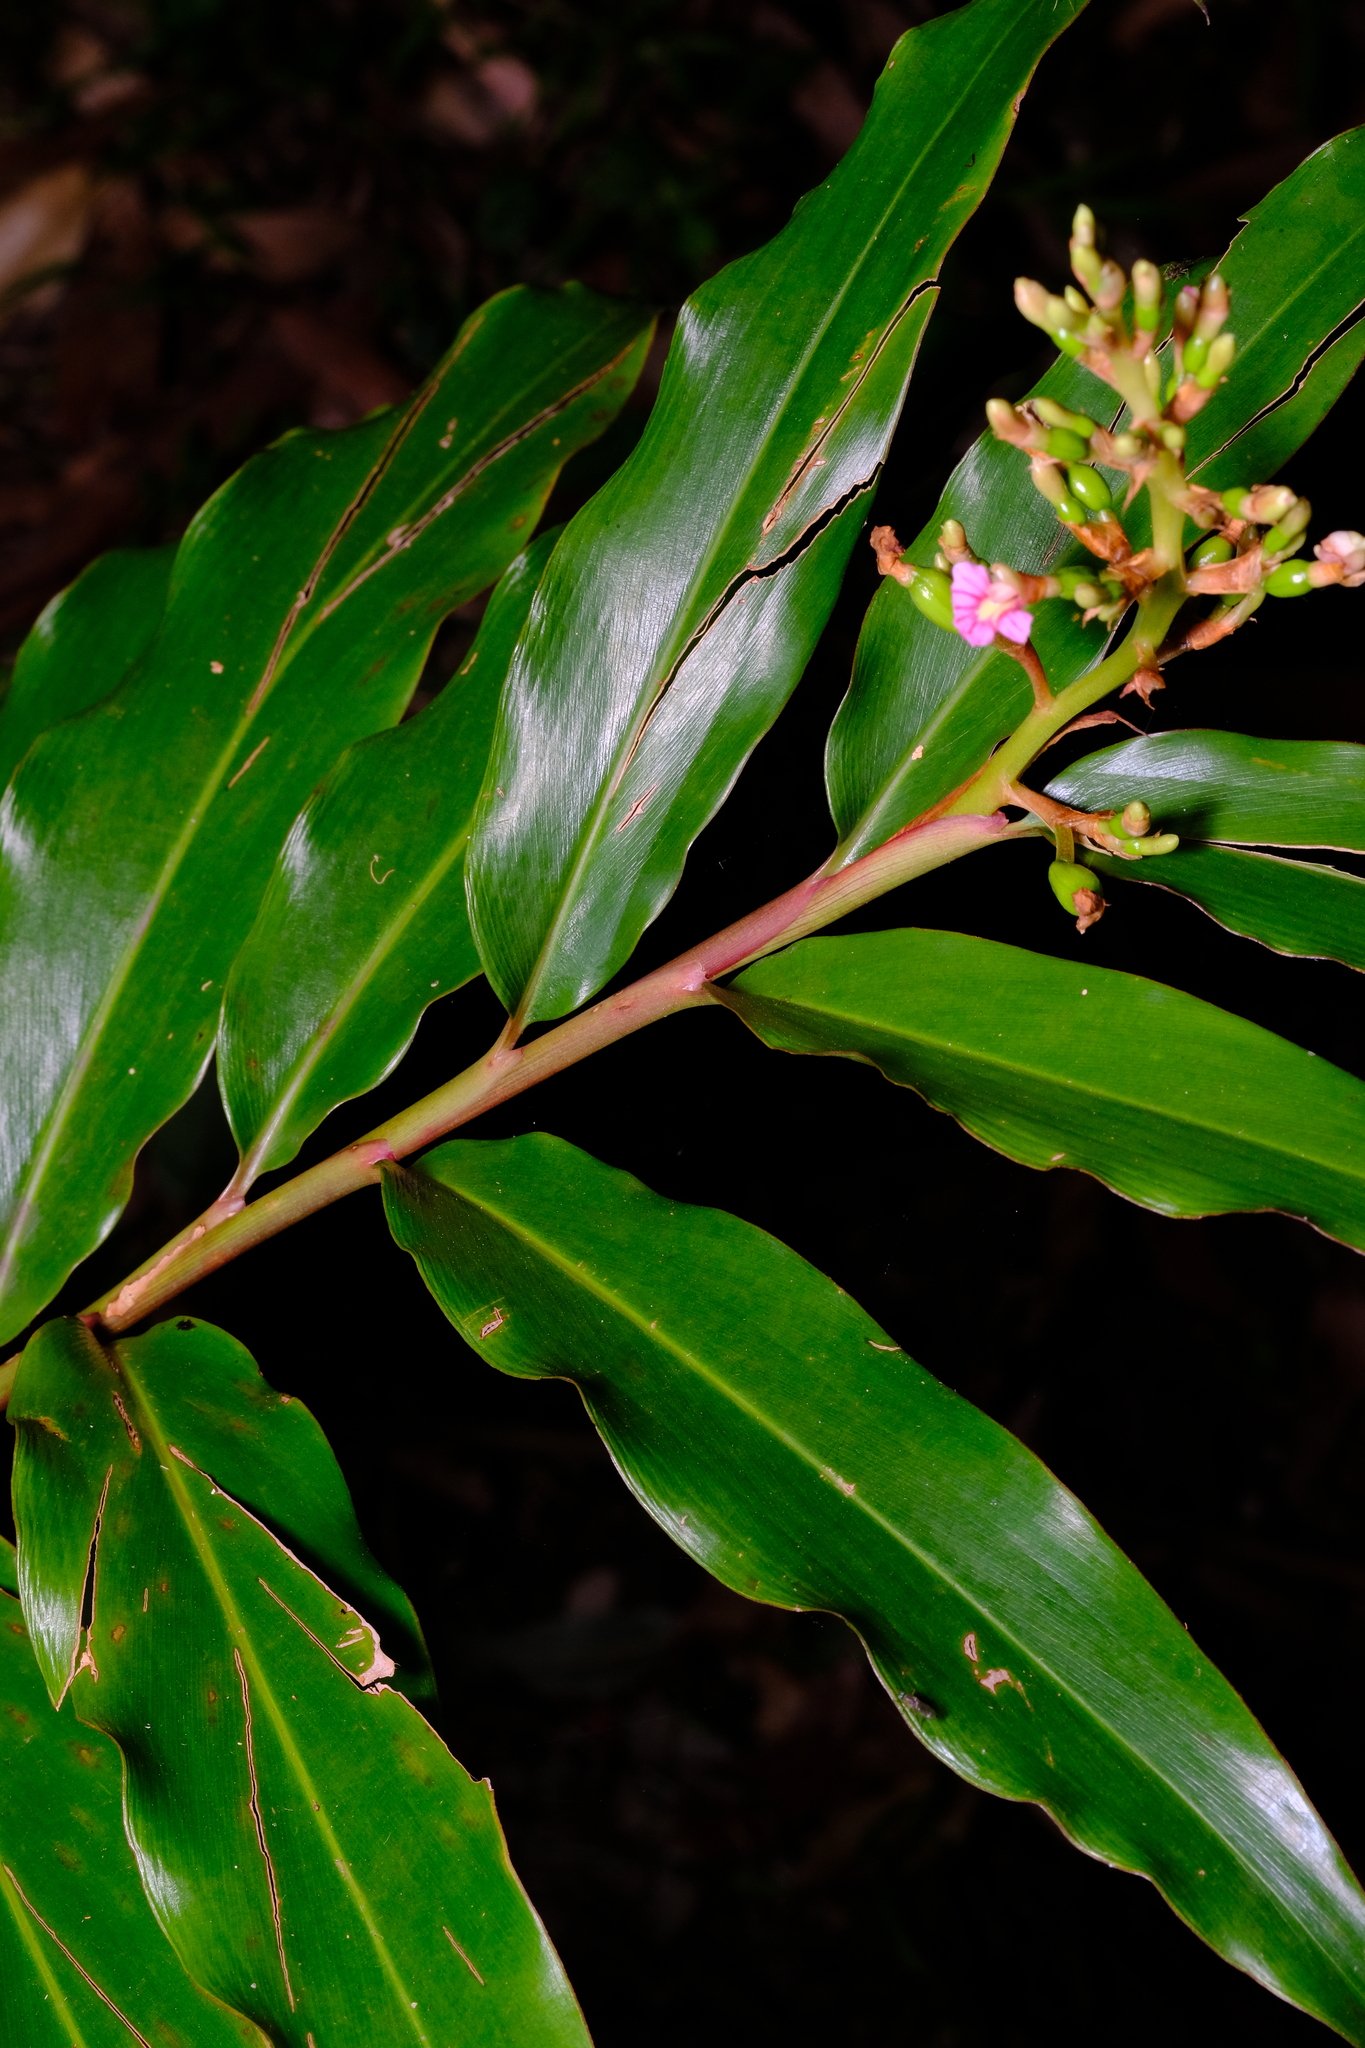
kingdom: Plantae
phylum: Tracheophyta
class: Liliopsida
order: Zingiberales
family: Zingiberaceae
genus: Alpinia
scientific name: Alpinia arundelliana
